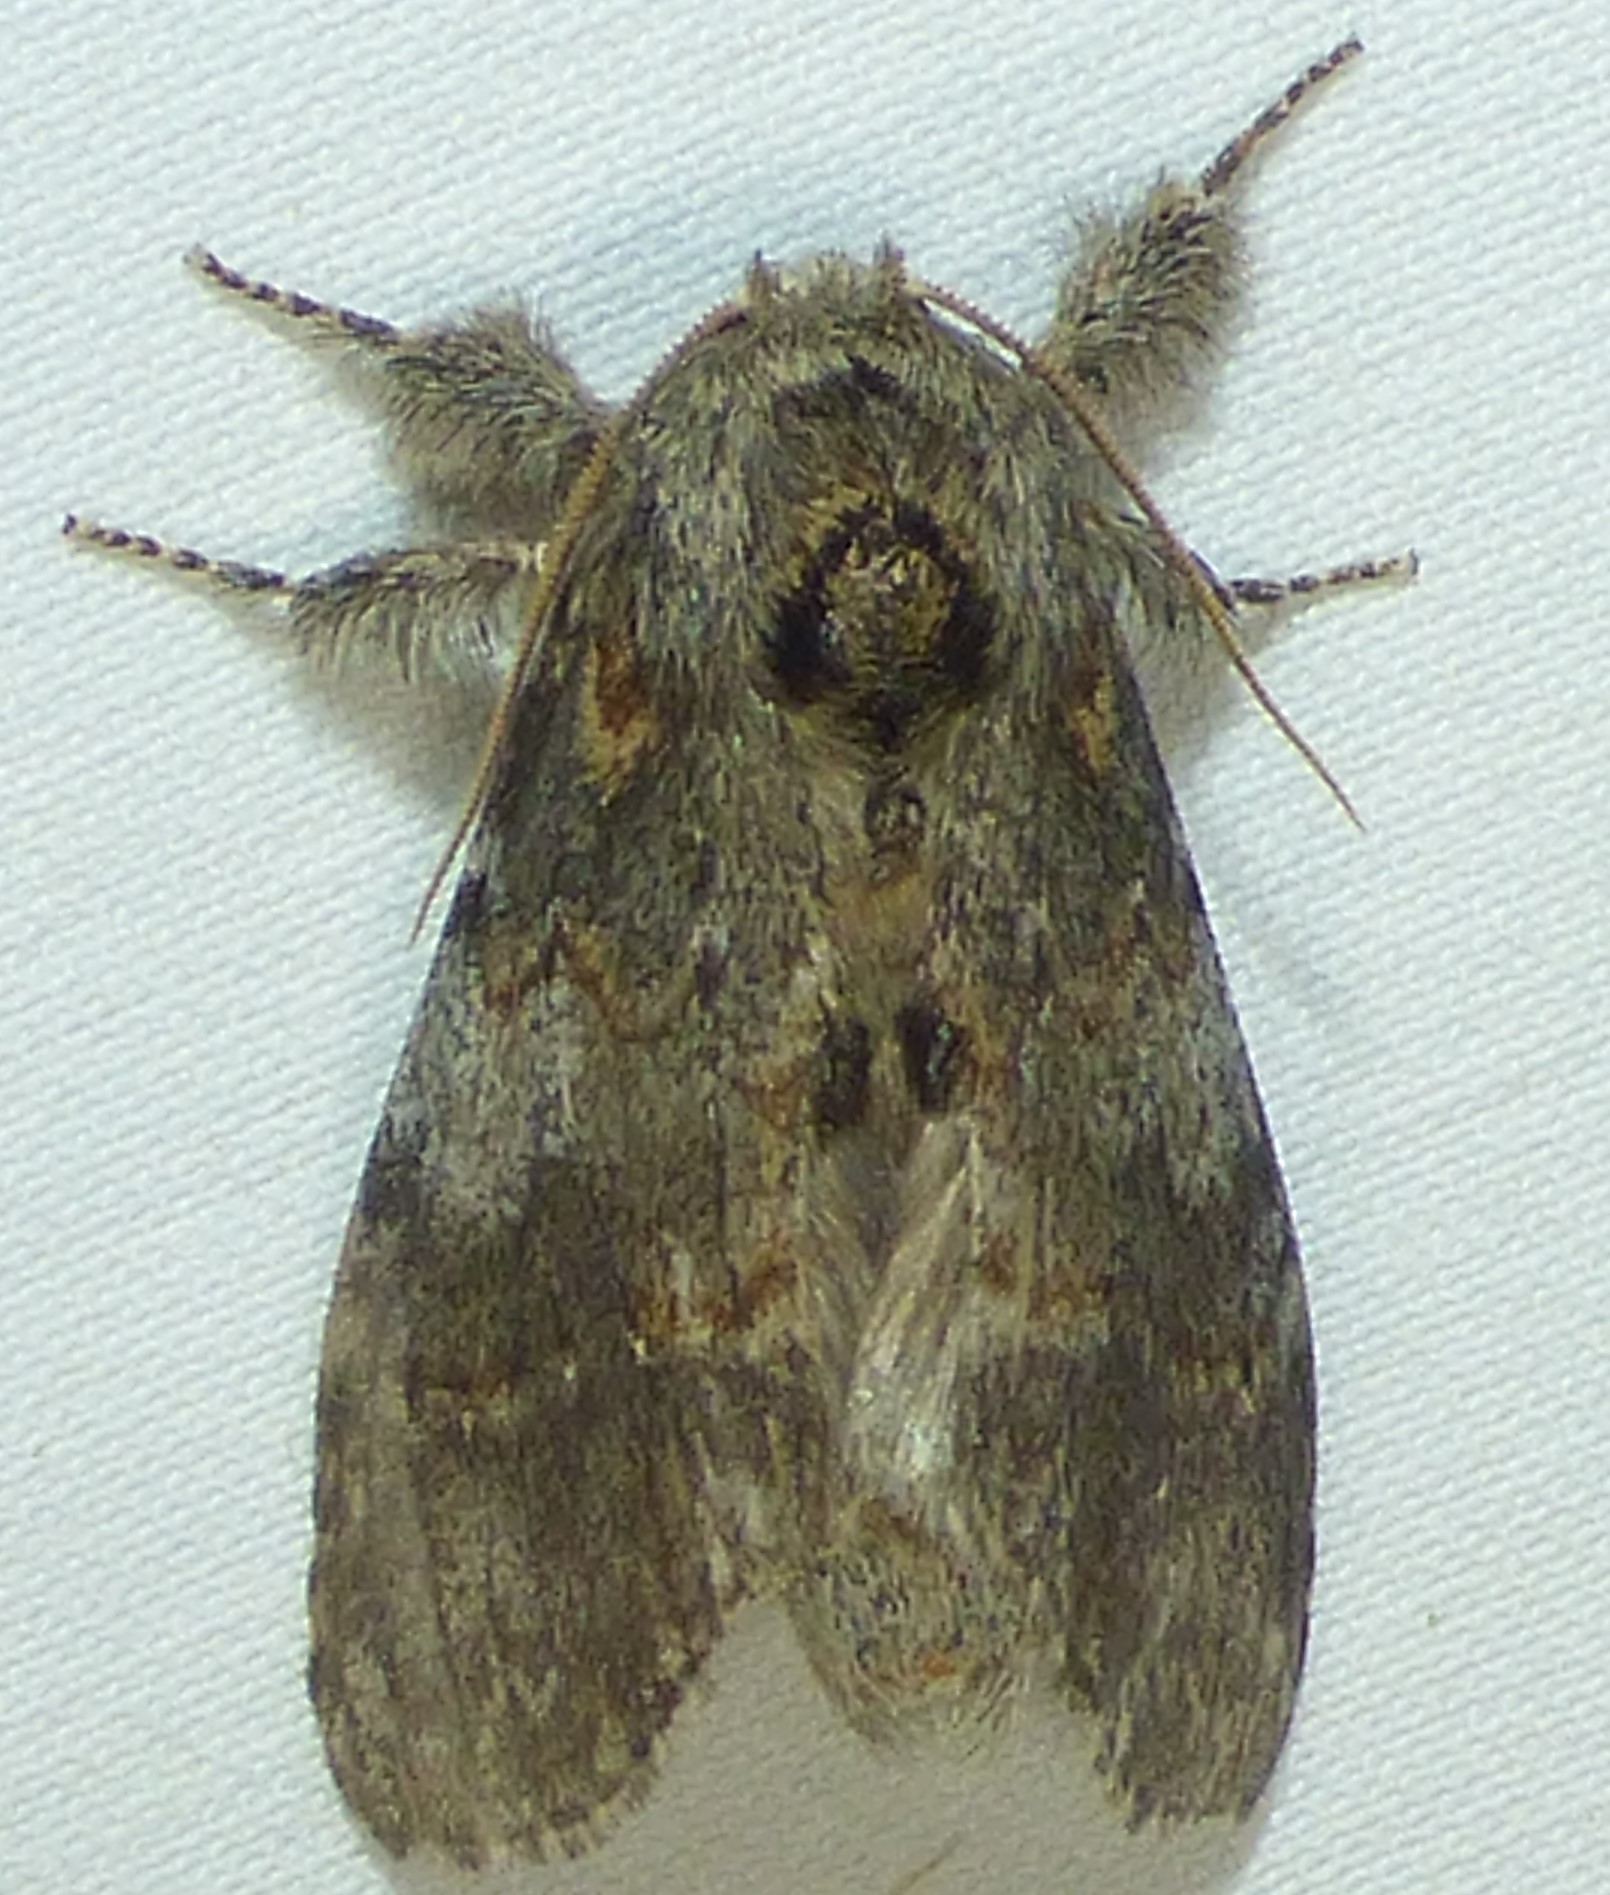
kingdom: Animalia
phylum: Arthropoda
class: Insecta
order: Lepidoptera
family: Notodontidae
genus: Peridea
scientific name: Peridea angulosa
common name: Angulose prominent
